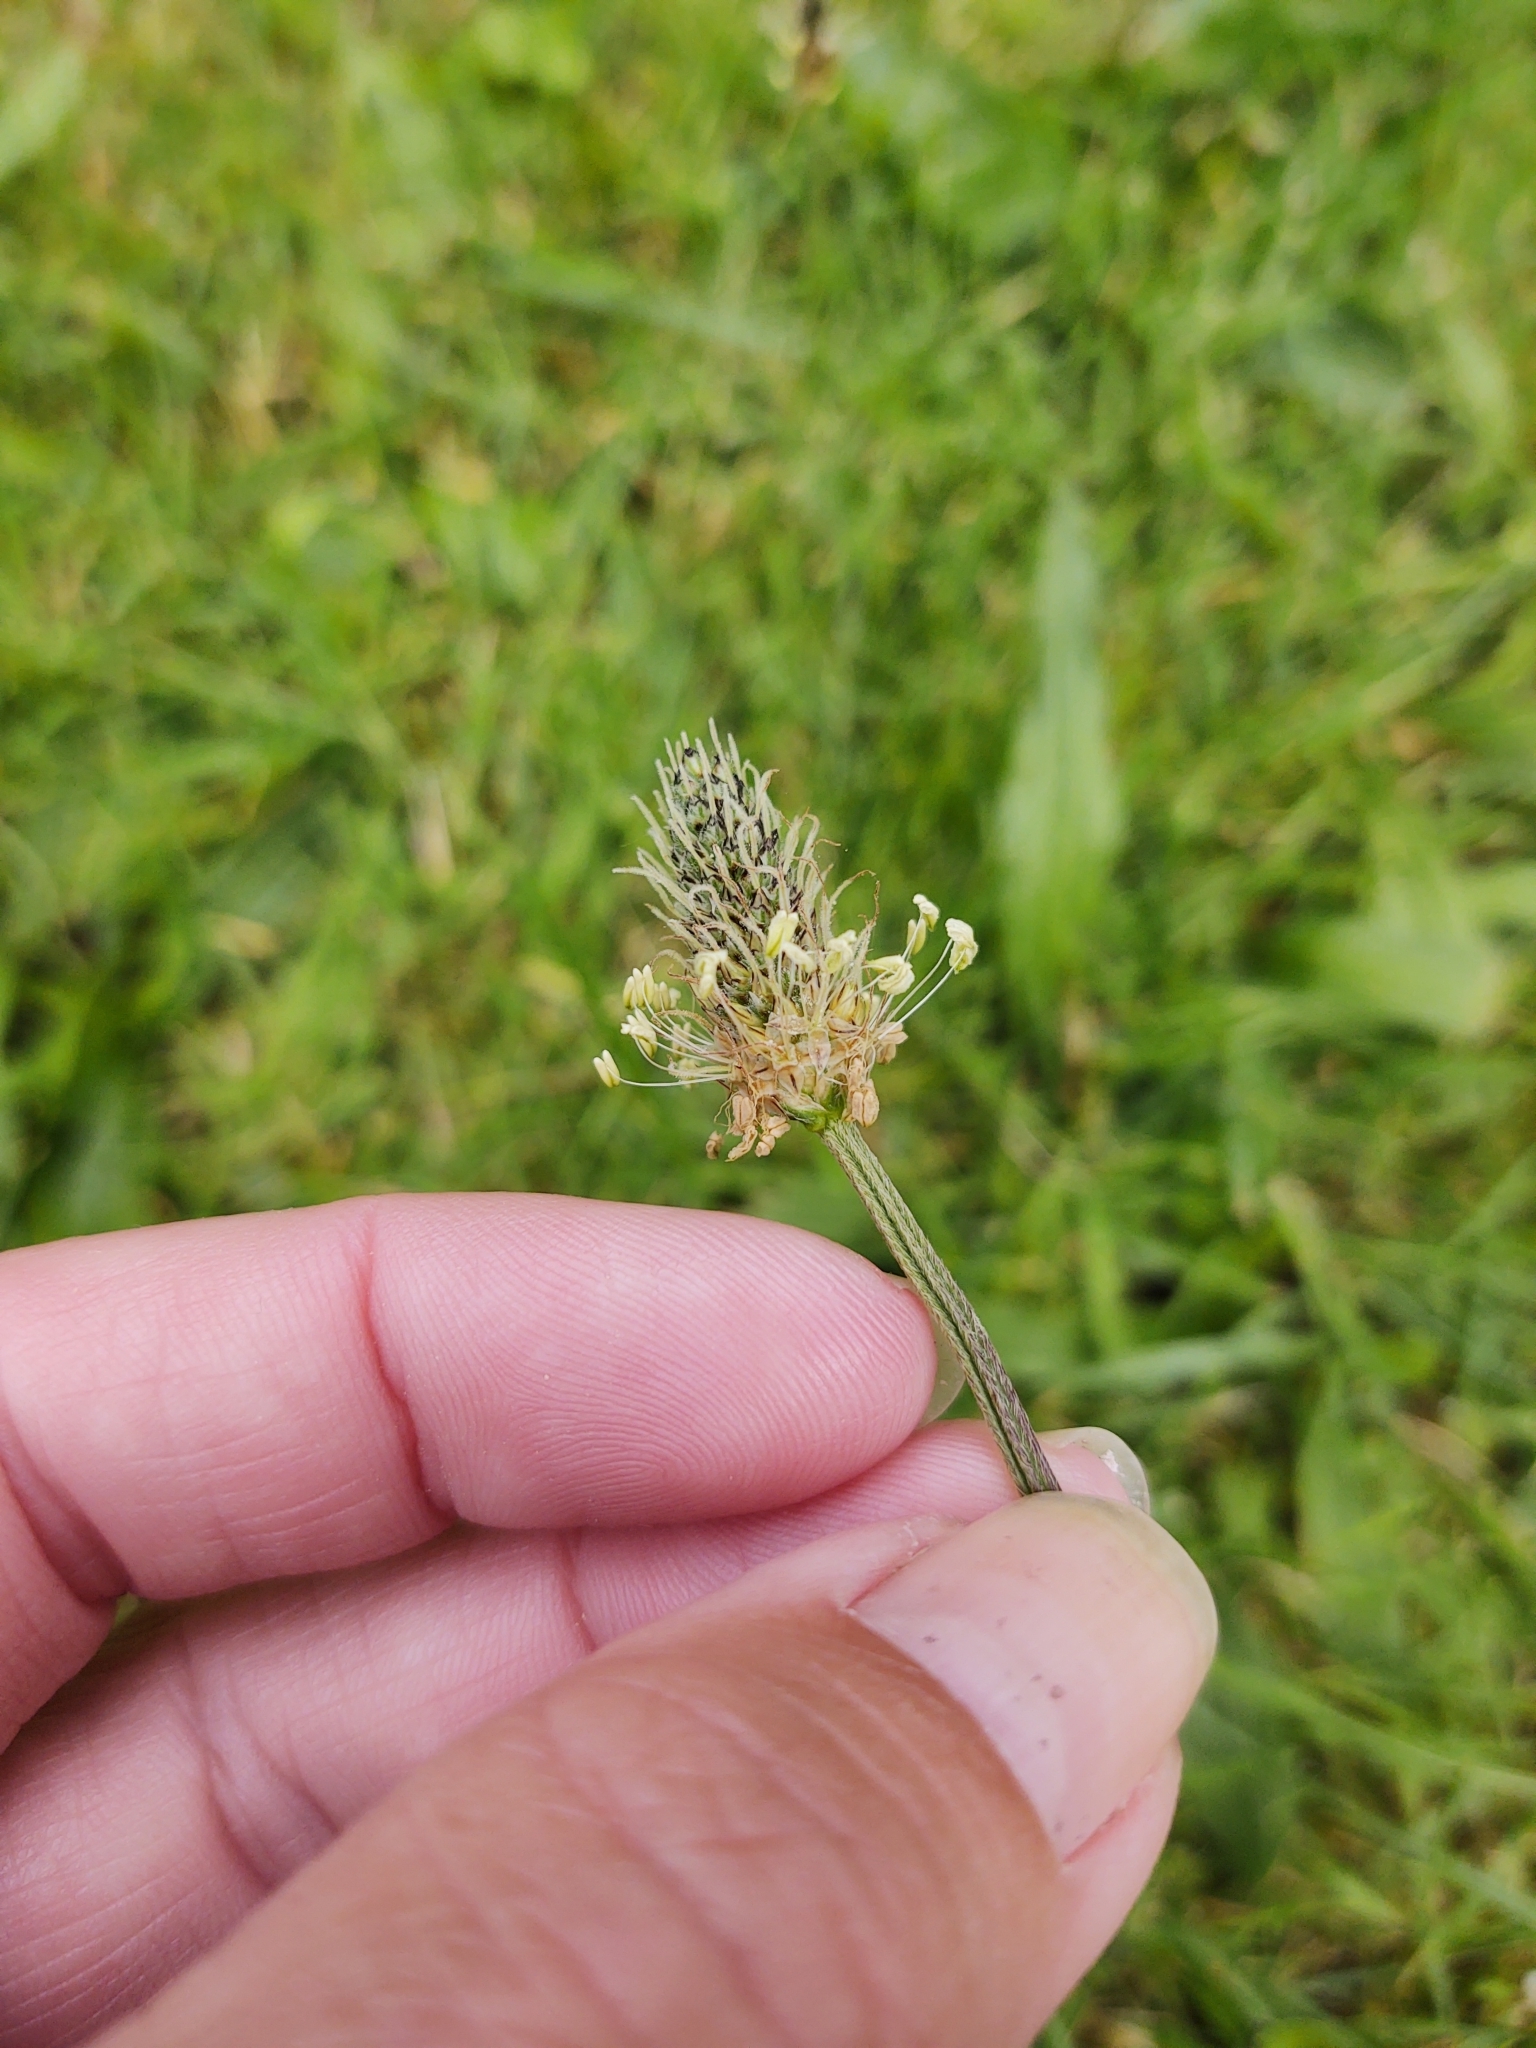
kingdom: Plantae
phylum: Tracheophyta
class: Magnoliopsida
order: Lamiales
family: Plantaginaceae
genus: Plantago
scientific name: Plantago lanceolata
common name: Ribwort plantain
